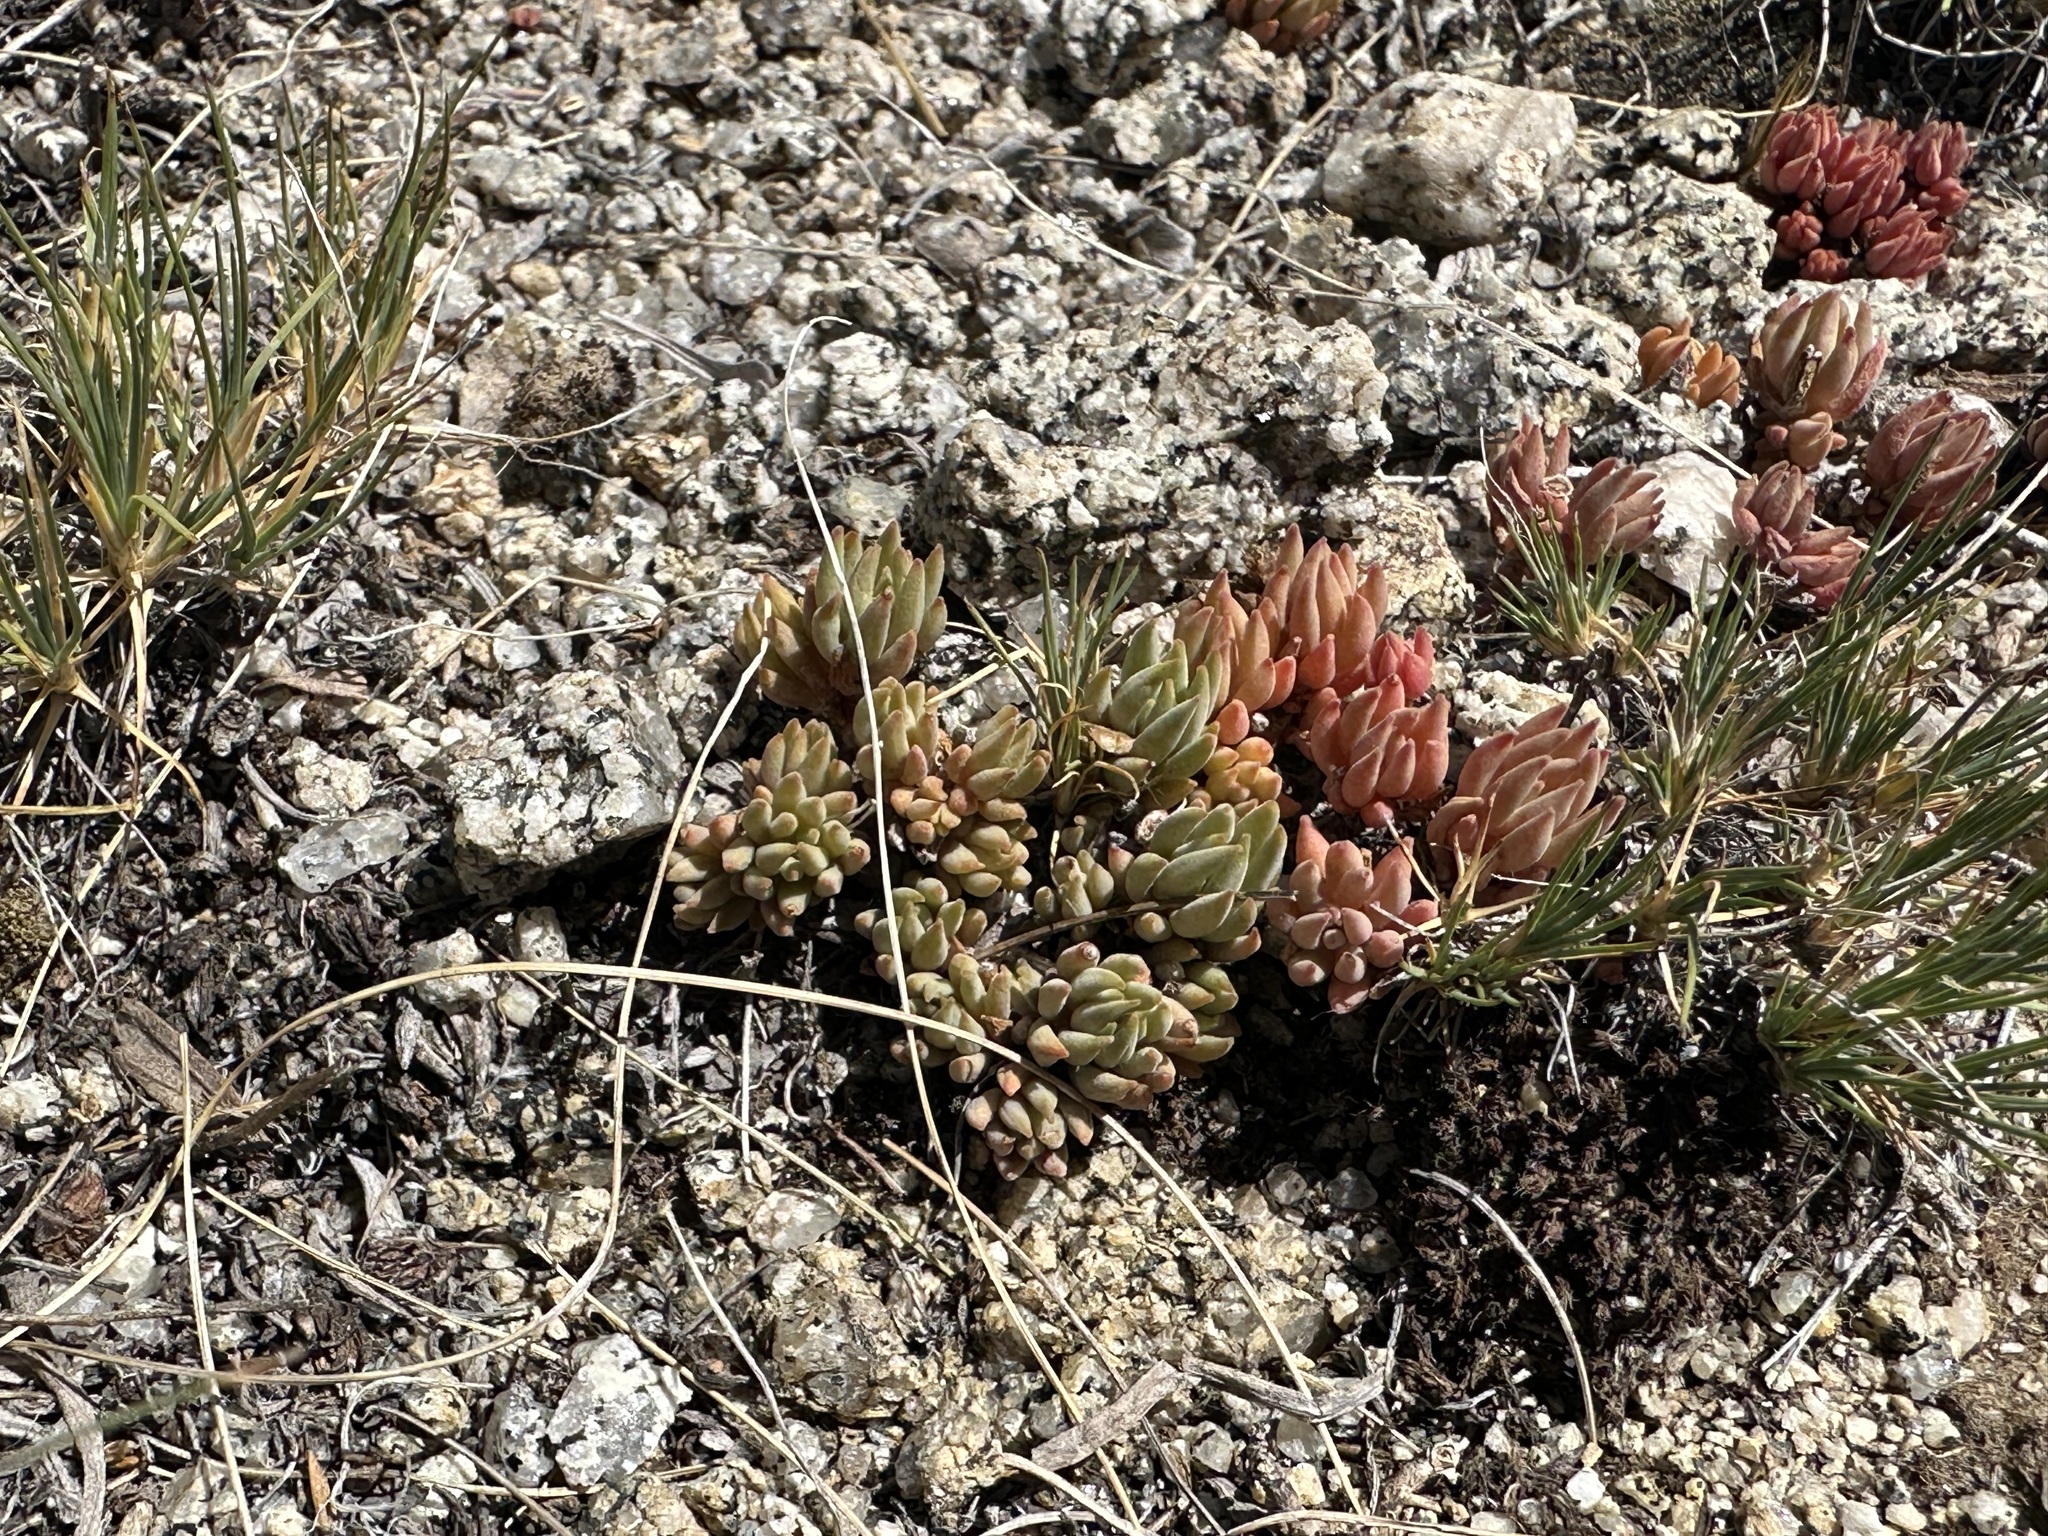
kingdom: Plantae
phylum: Tracheophyta
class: Magnoliopsida
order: Saxifragales
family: Crassulaceae
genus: Sedum
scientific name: Sedum lanceolatum
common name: Common stonecrop
